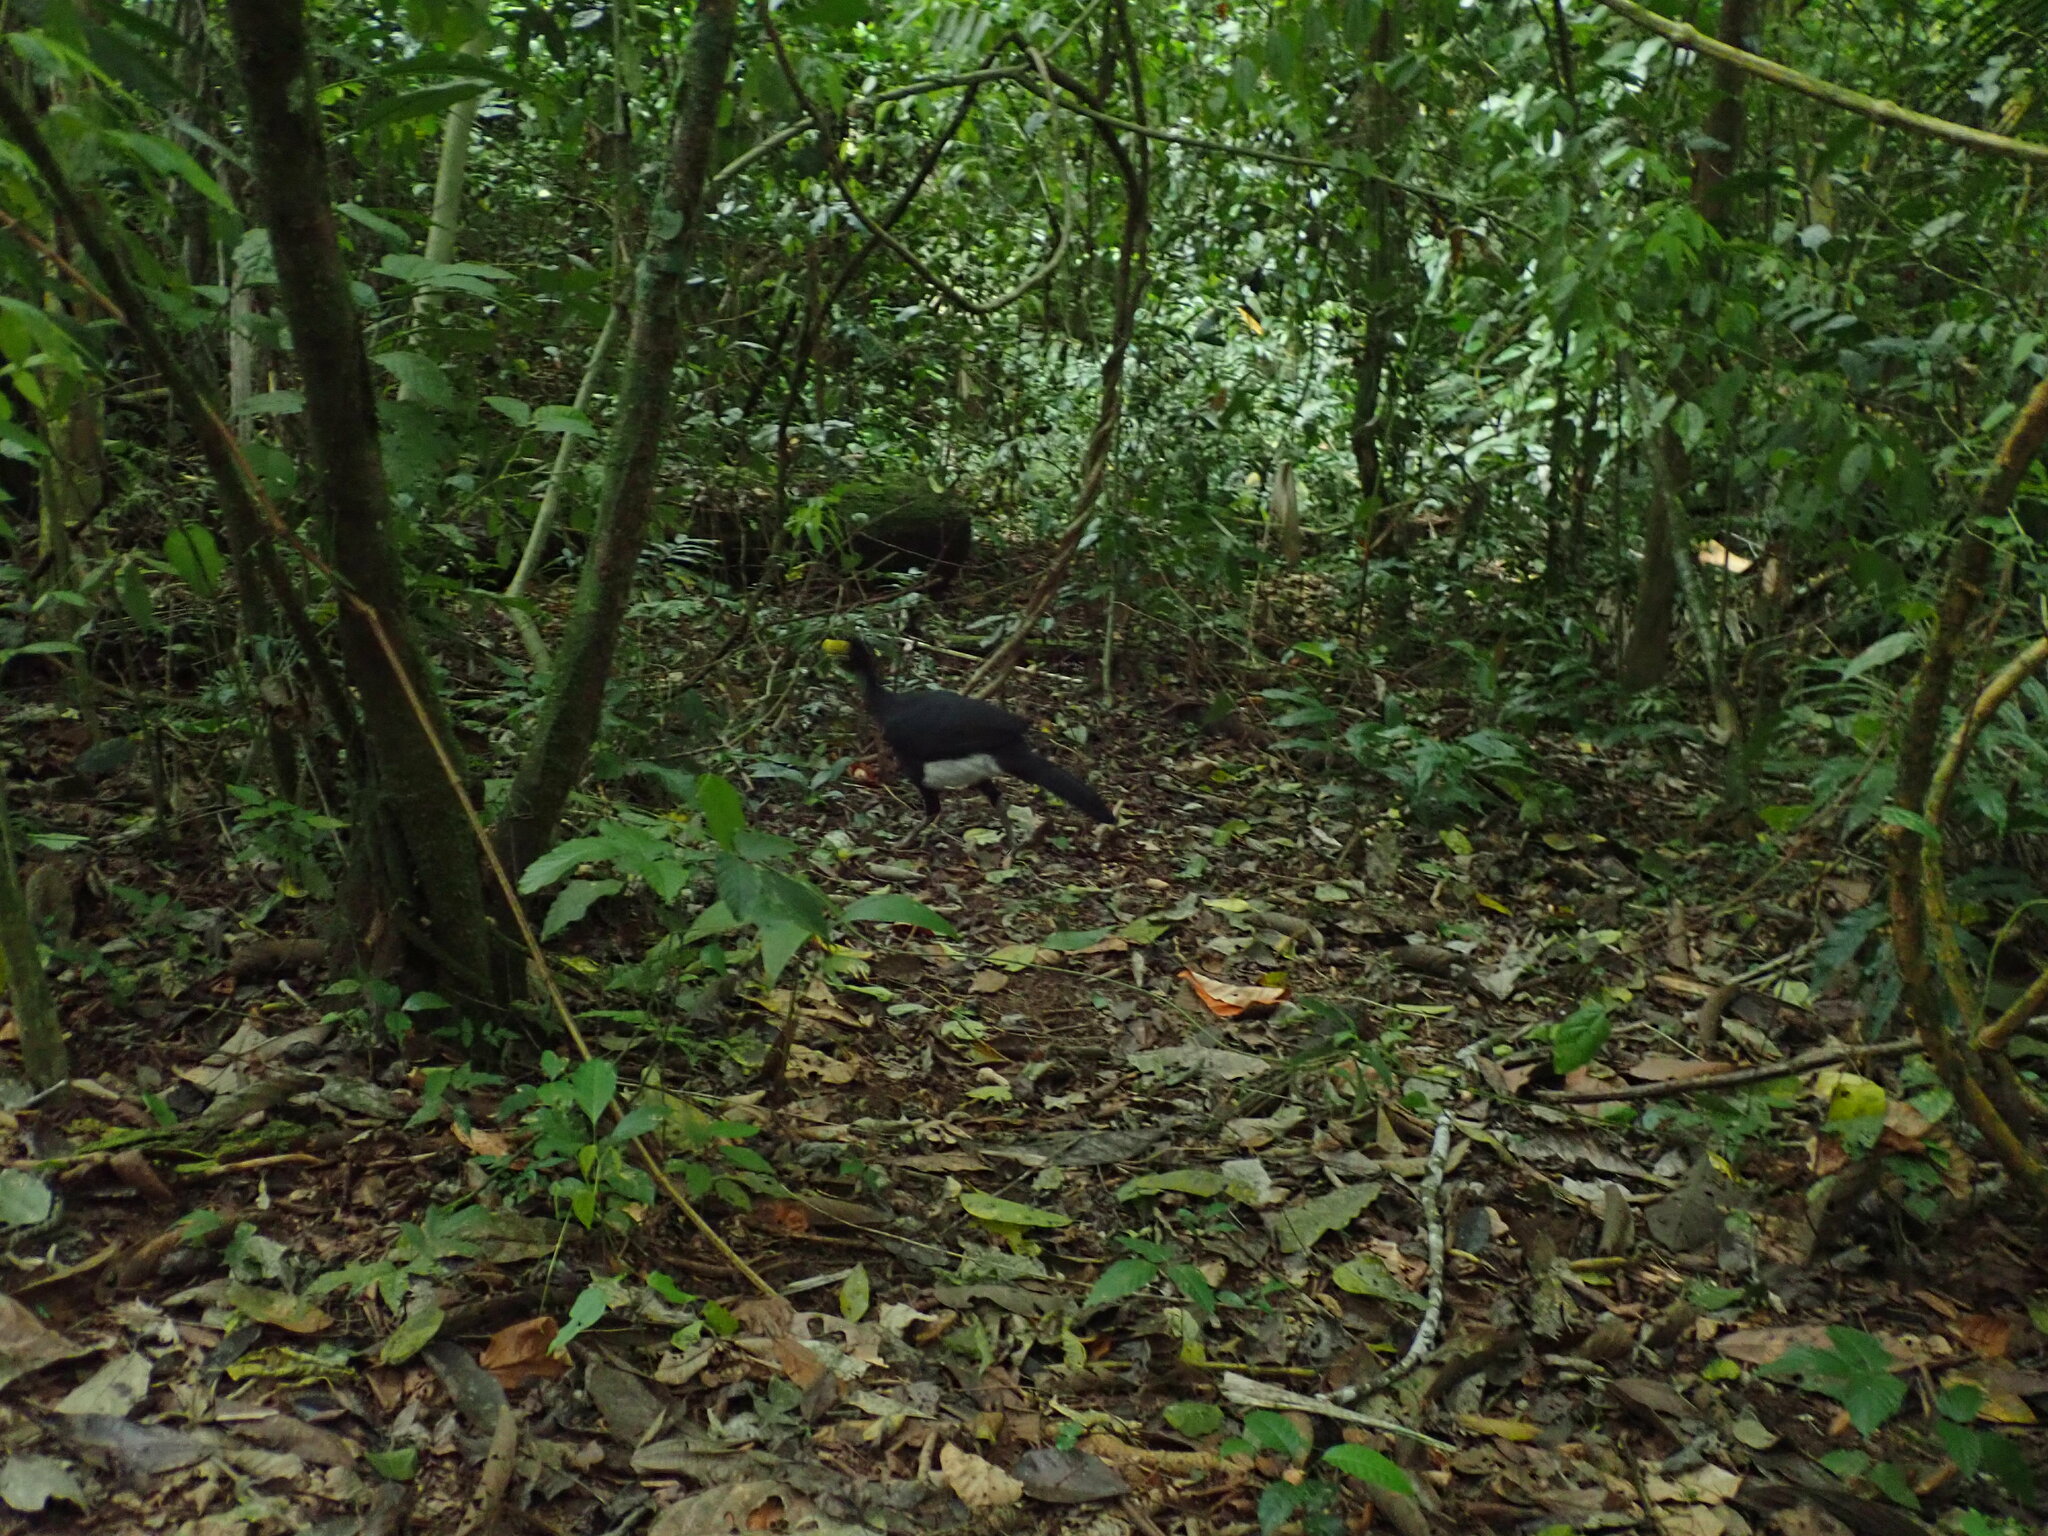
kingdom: Animalia
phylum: Chordata
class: Aves
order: Galliformes
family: Cracidae
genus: Crax
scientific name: Crax rubra
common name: Great curassow
